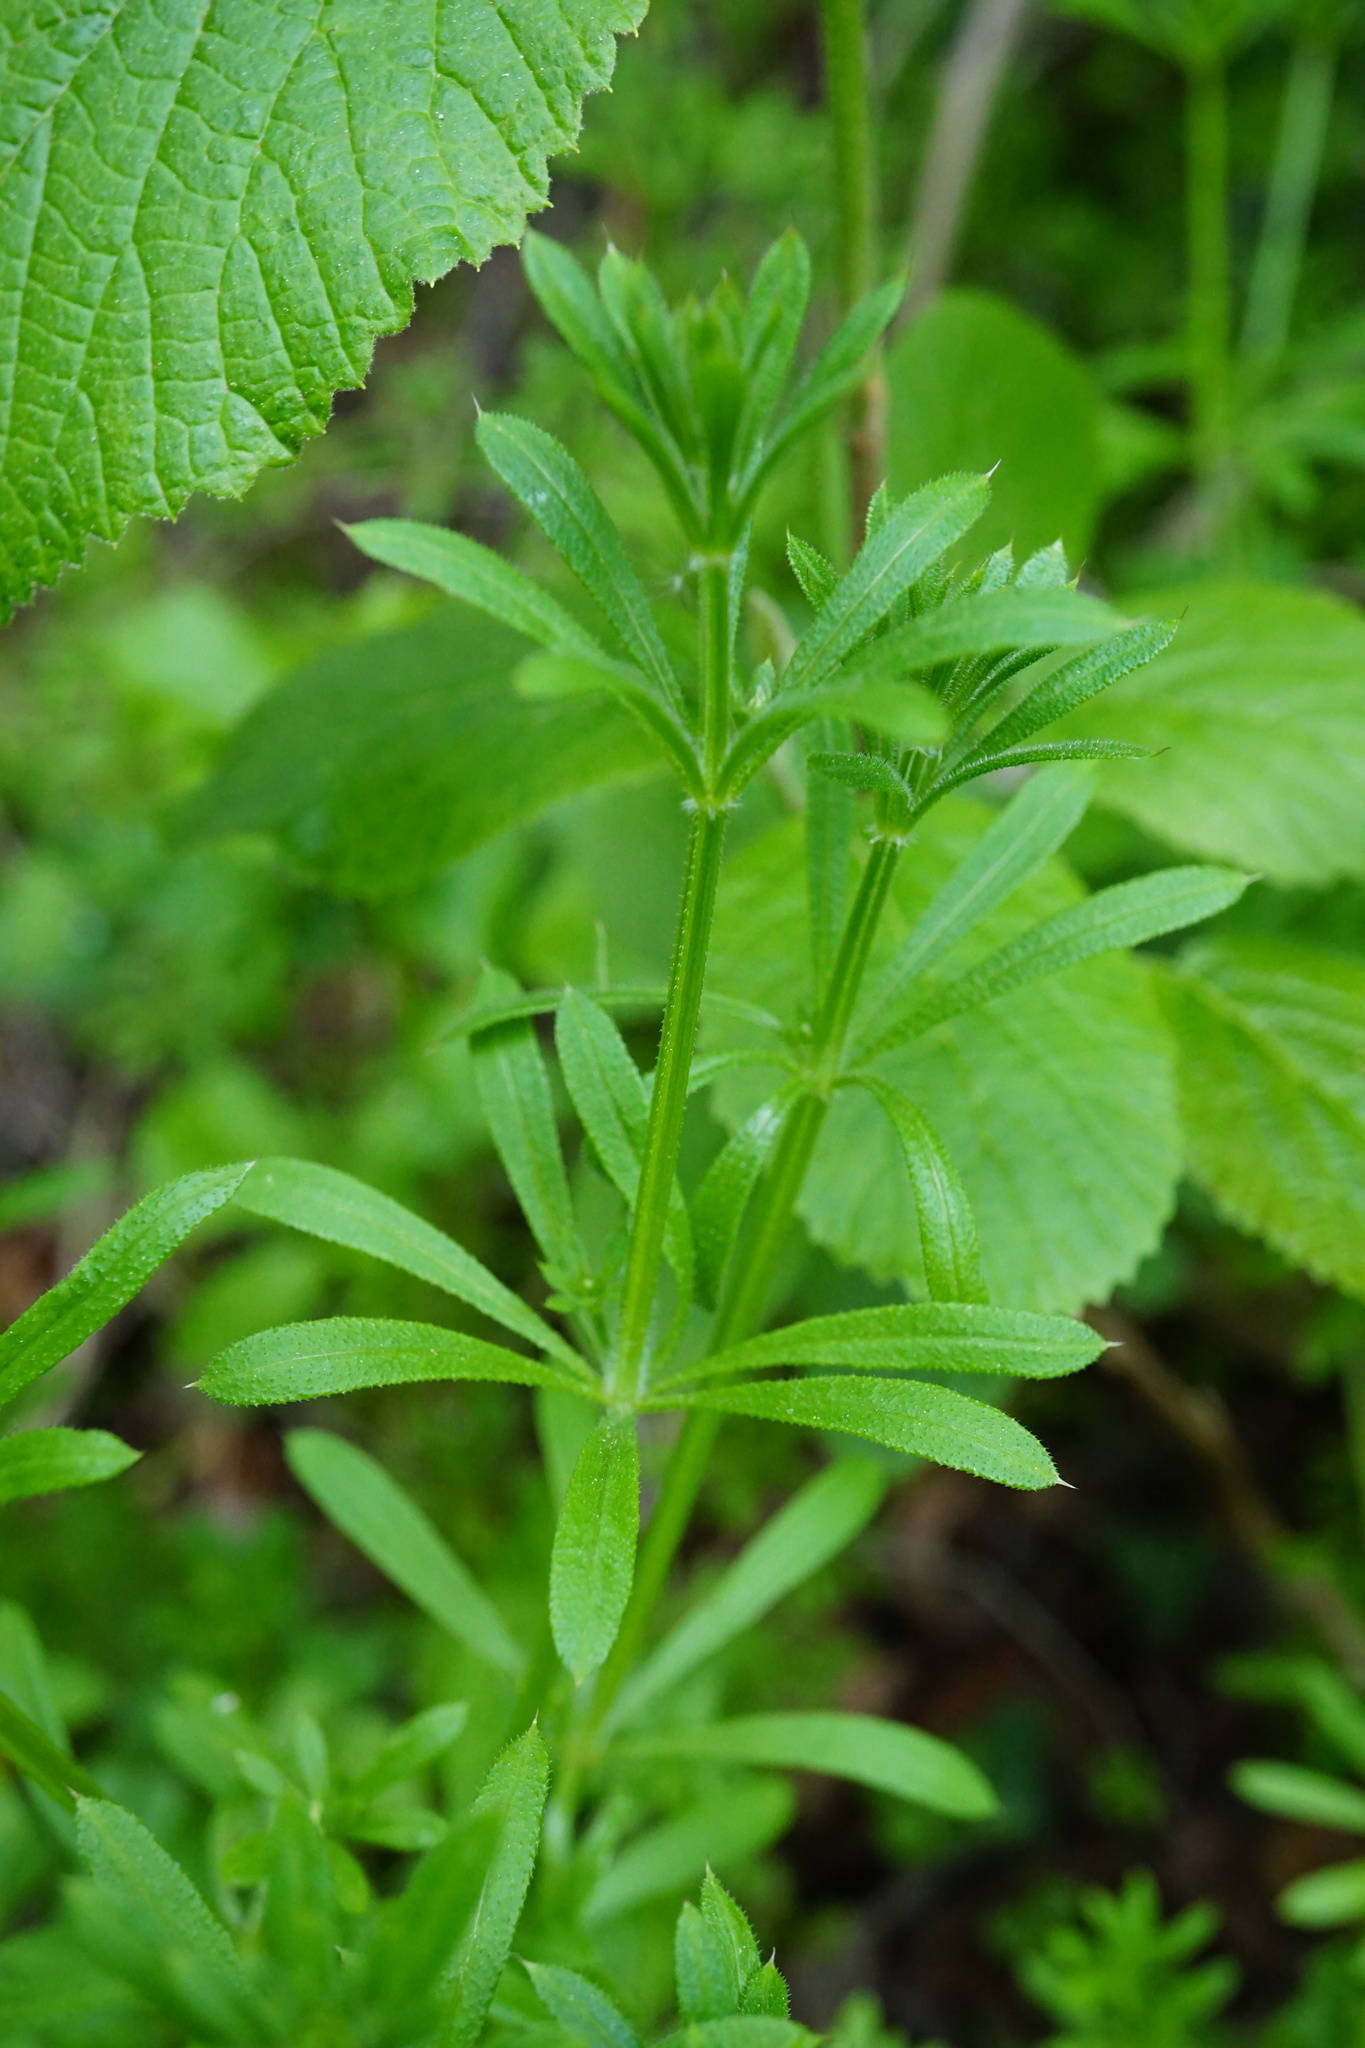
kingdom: Plantae
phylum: Tracheophyta
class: Magnoliopsida
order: Gentianales
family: Rubiaceae
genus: Galium
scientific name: Galium aparine
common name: Cleavers
